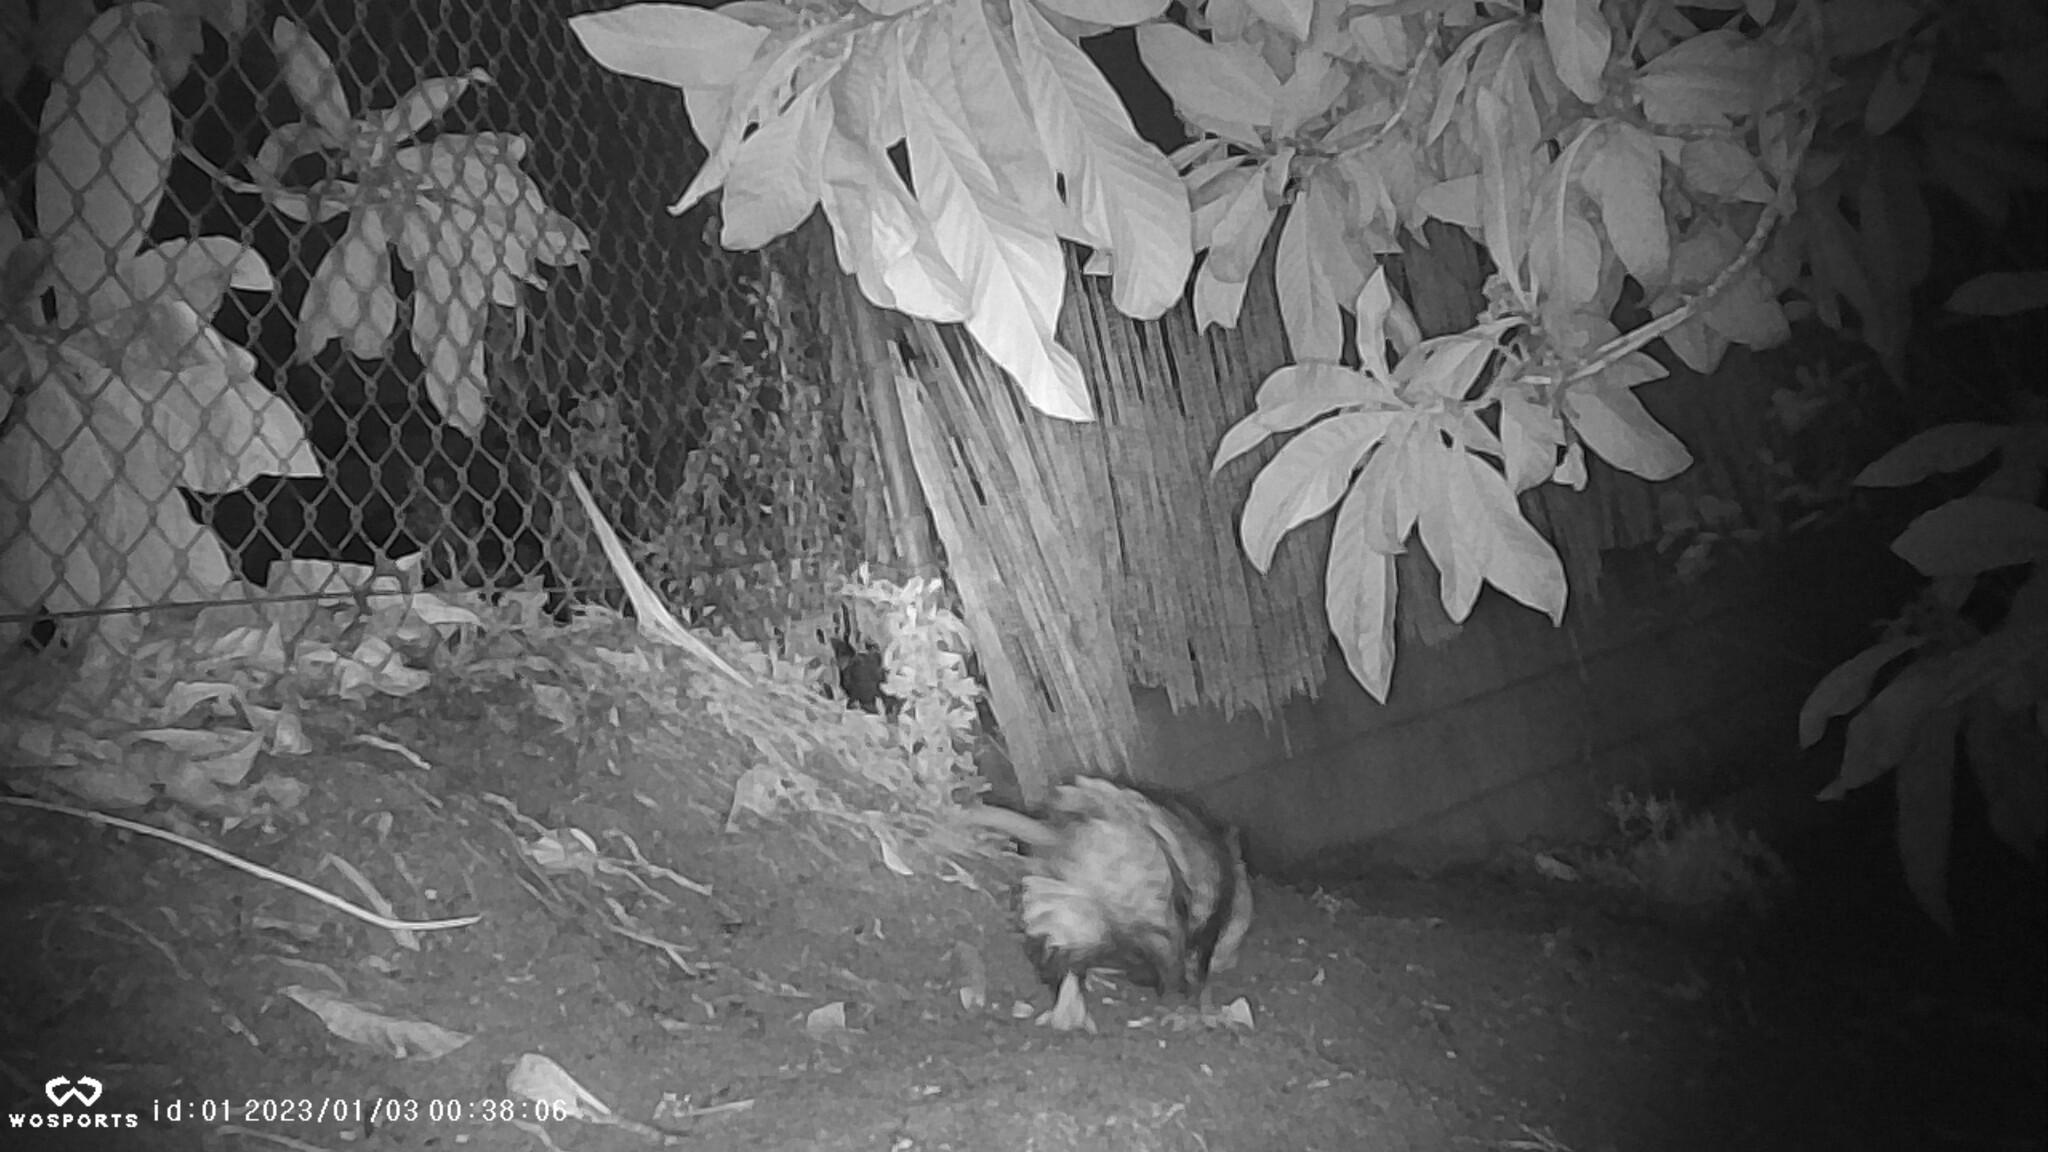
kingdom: Animalia
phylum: Chordata
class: Mammalia
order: Didelphimorphia
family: Didelphidae
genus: Didelphis
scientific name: Didelphis virginiana
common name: Virginia opossum
